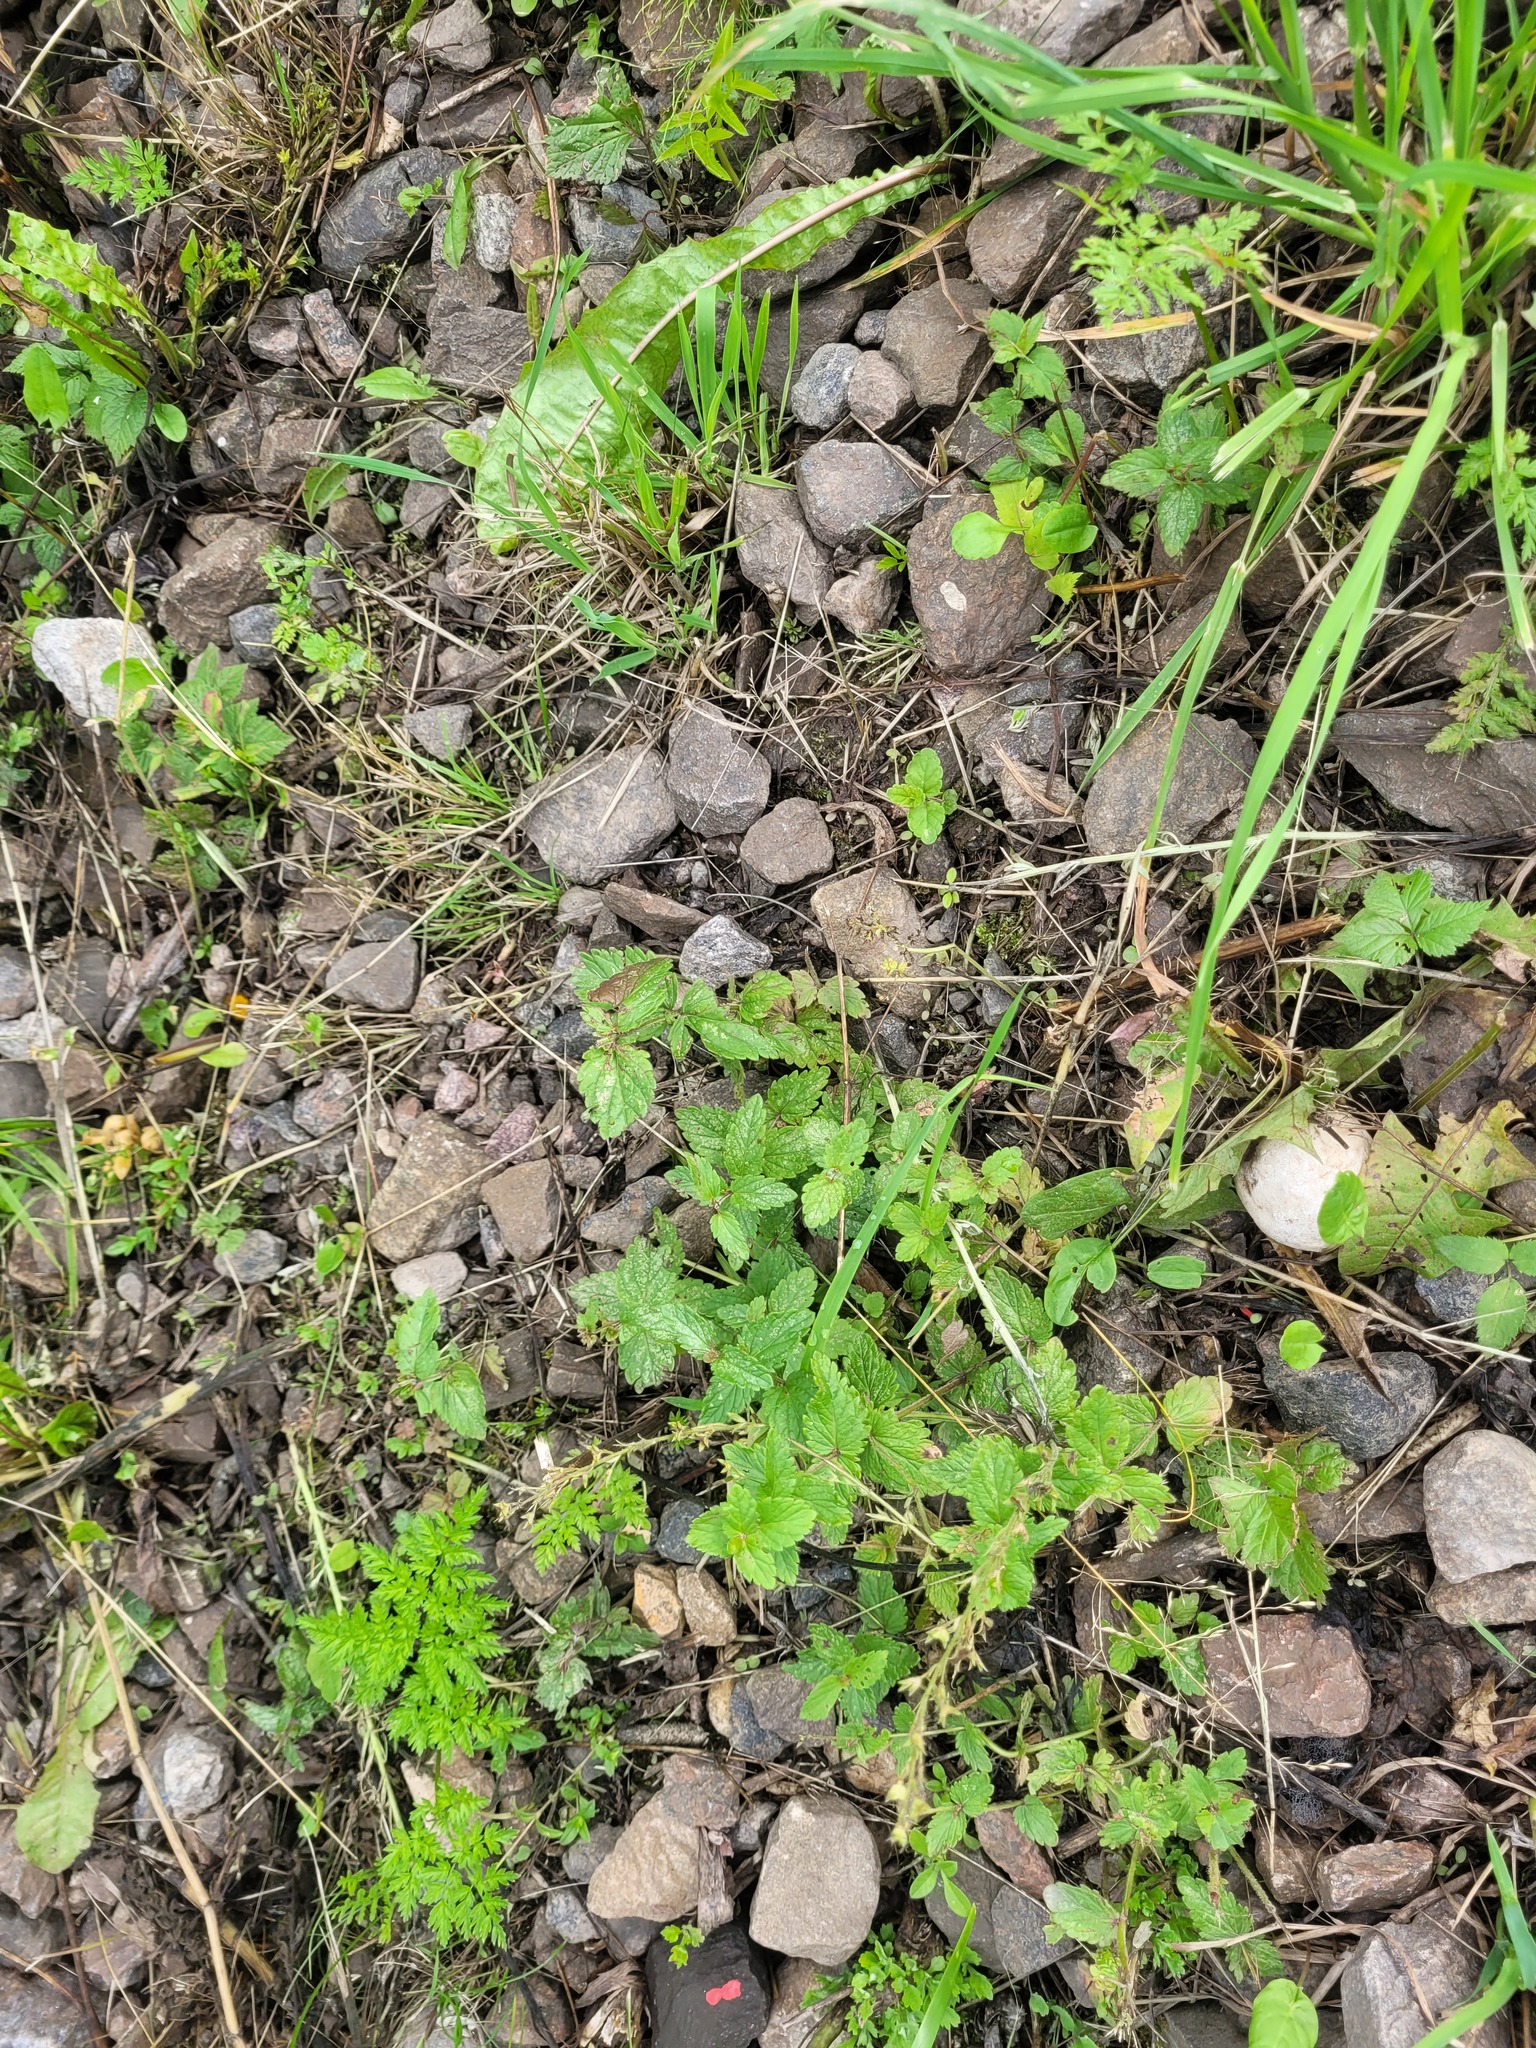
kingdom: Plantae
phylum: Tracheophyta
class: Magnoliopsida
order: Lamiales
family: Plantaginaceae
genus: Veronica
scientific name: Veronica chamaedrys
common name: Germander speedwell
